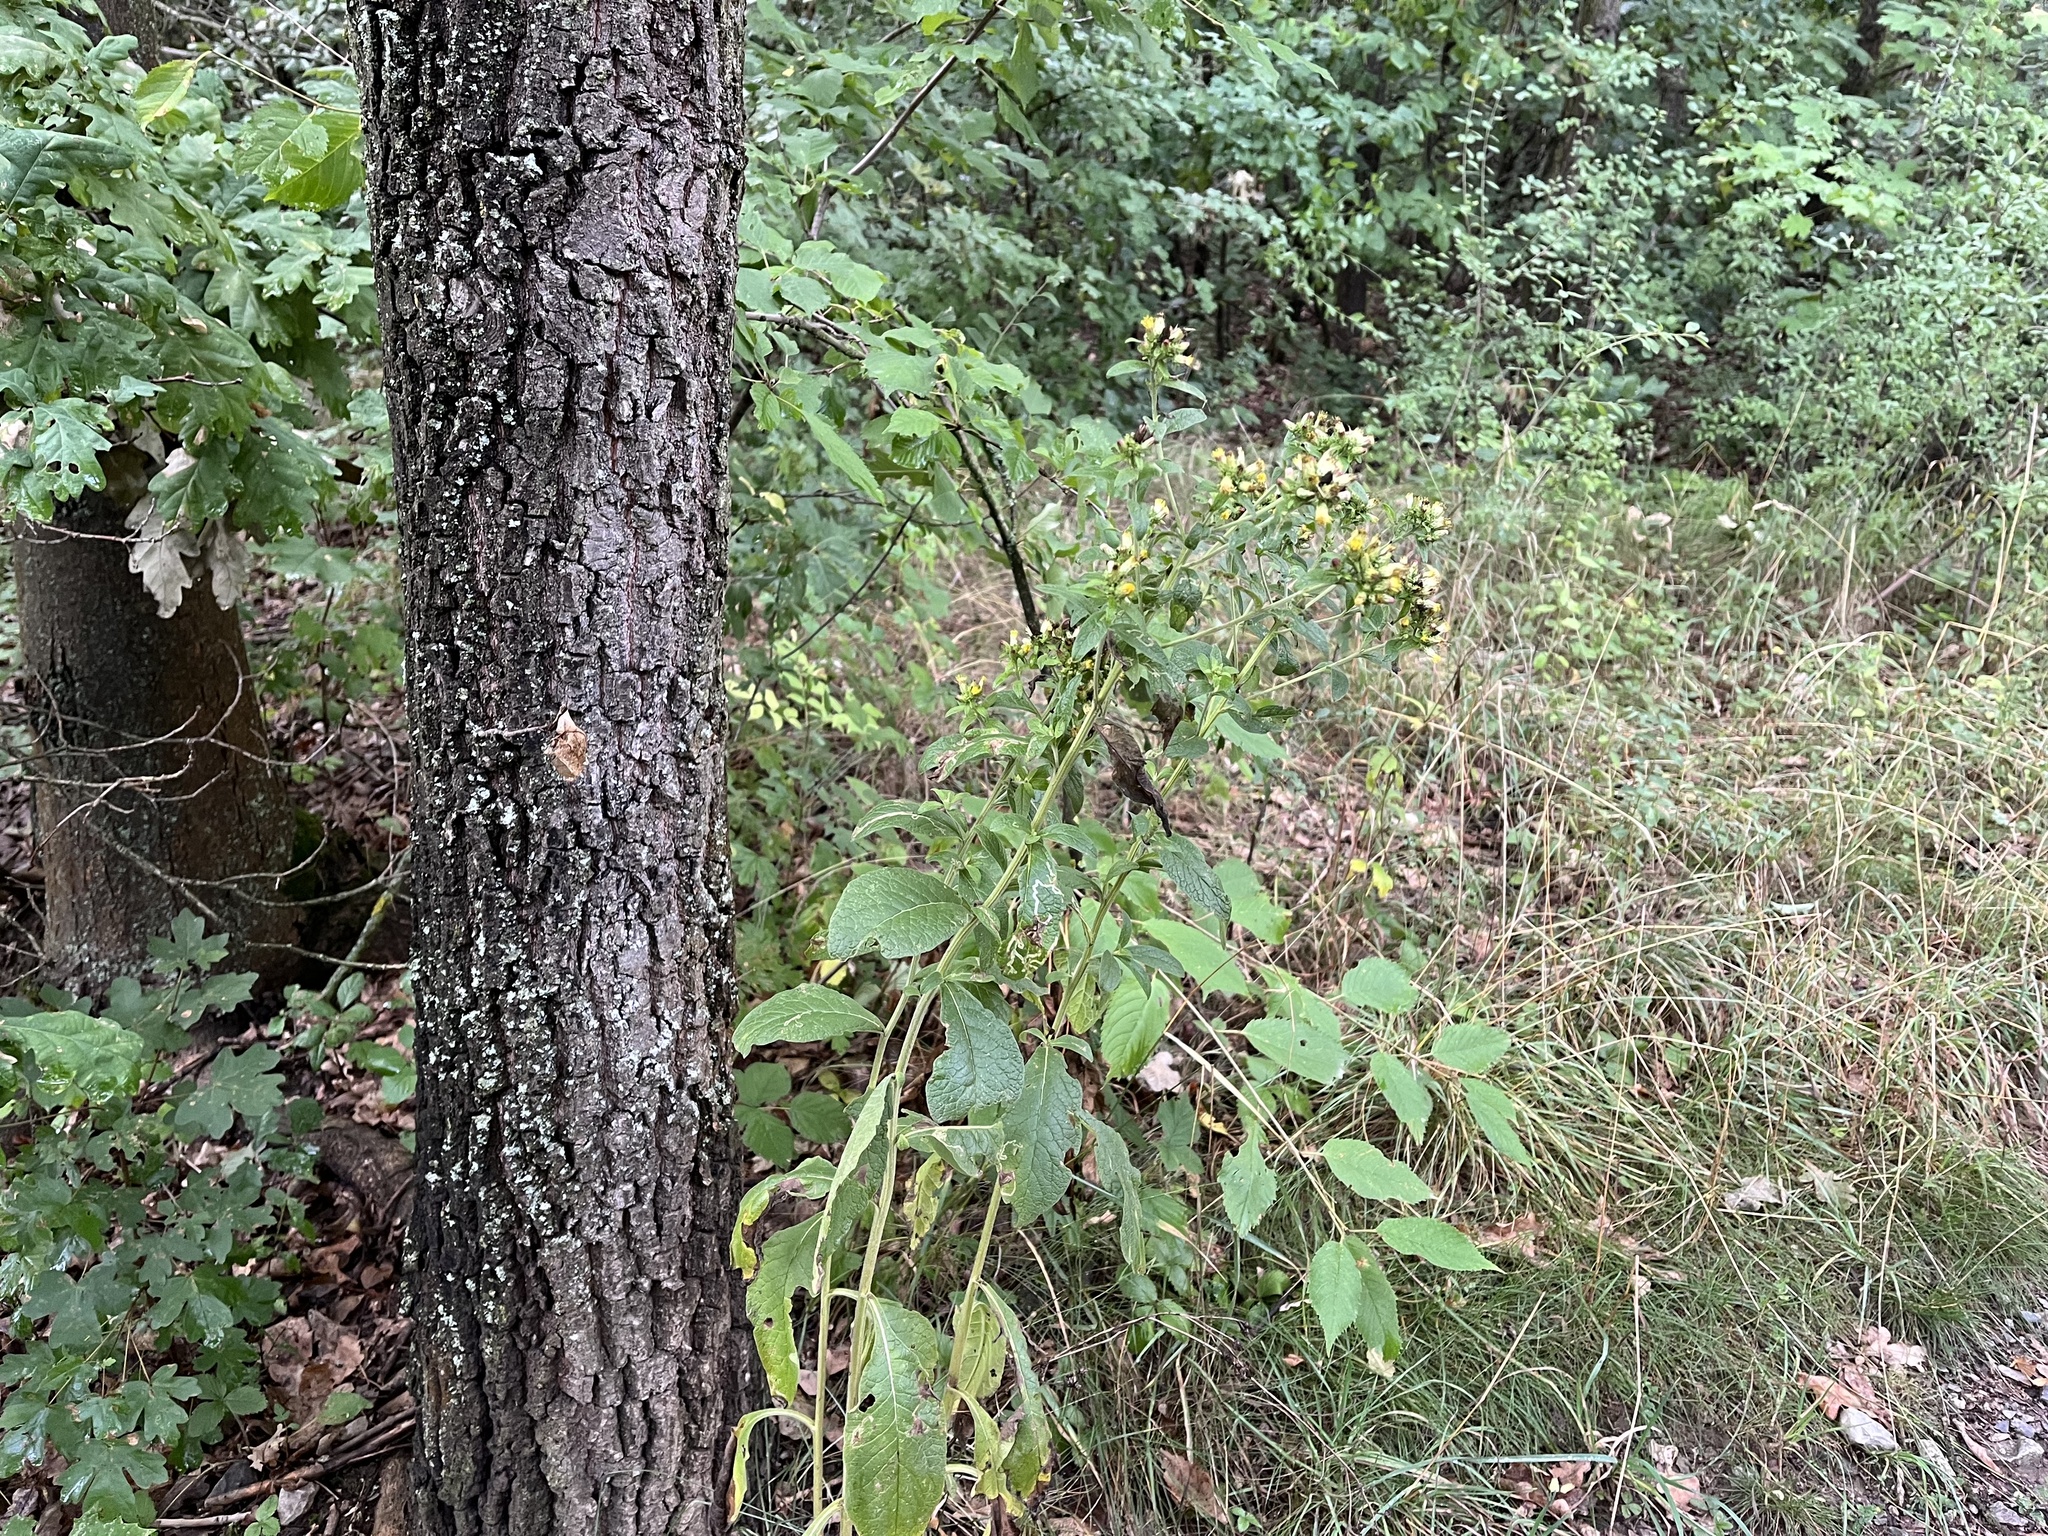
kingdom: Plantae
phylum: Tracheophyta
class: Magnoliopsida
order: Asterales
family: Asteraceae
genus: Pentanema
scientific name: Pentanema squarrosum
